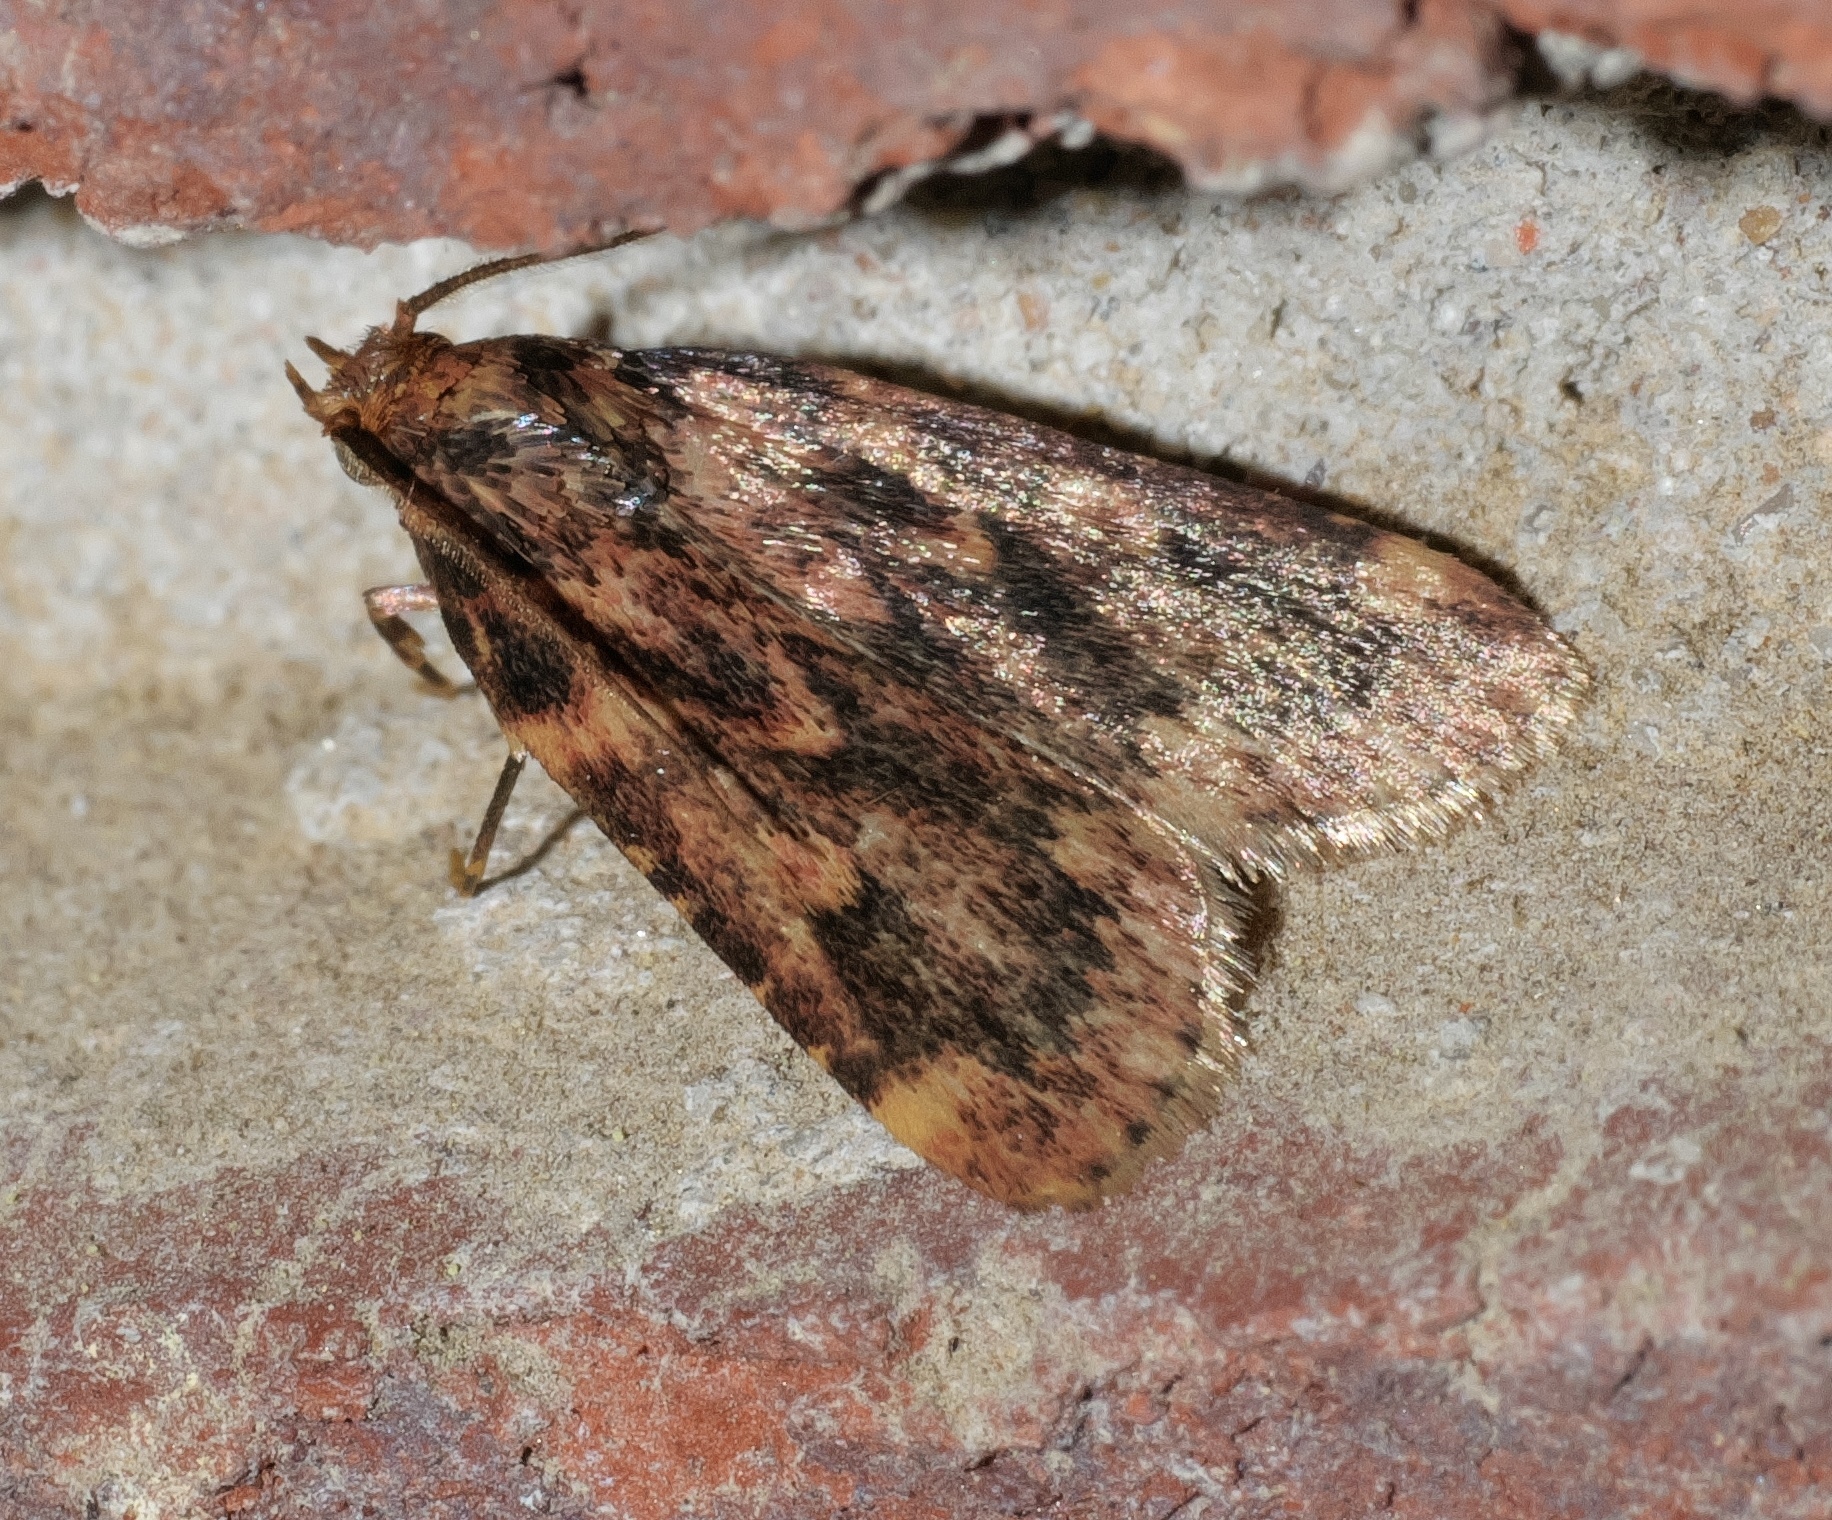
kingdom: Animalia
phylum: Arthropoda
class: Insecta
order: Lepidoptera
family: Pyralidae
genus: Aglossa
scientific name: Aglossa cuprina
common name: Grease moth
